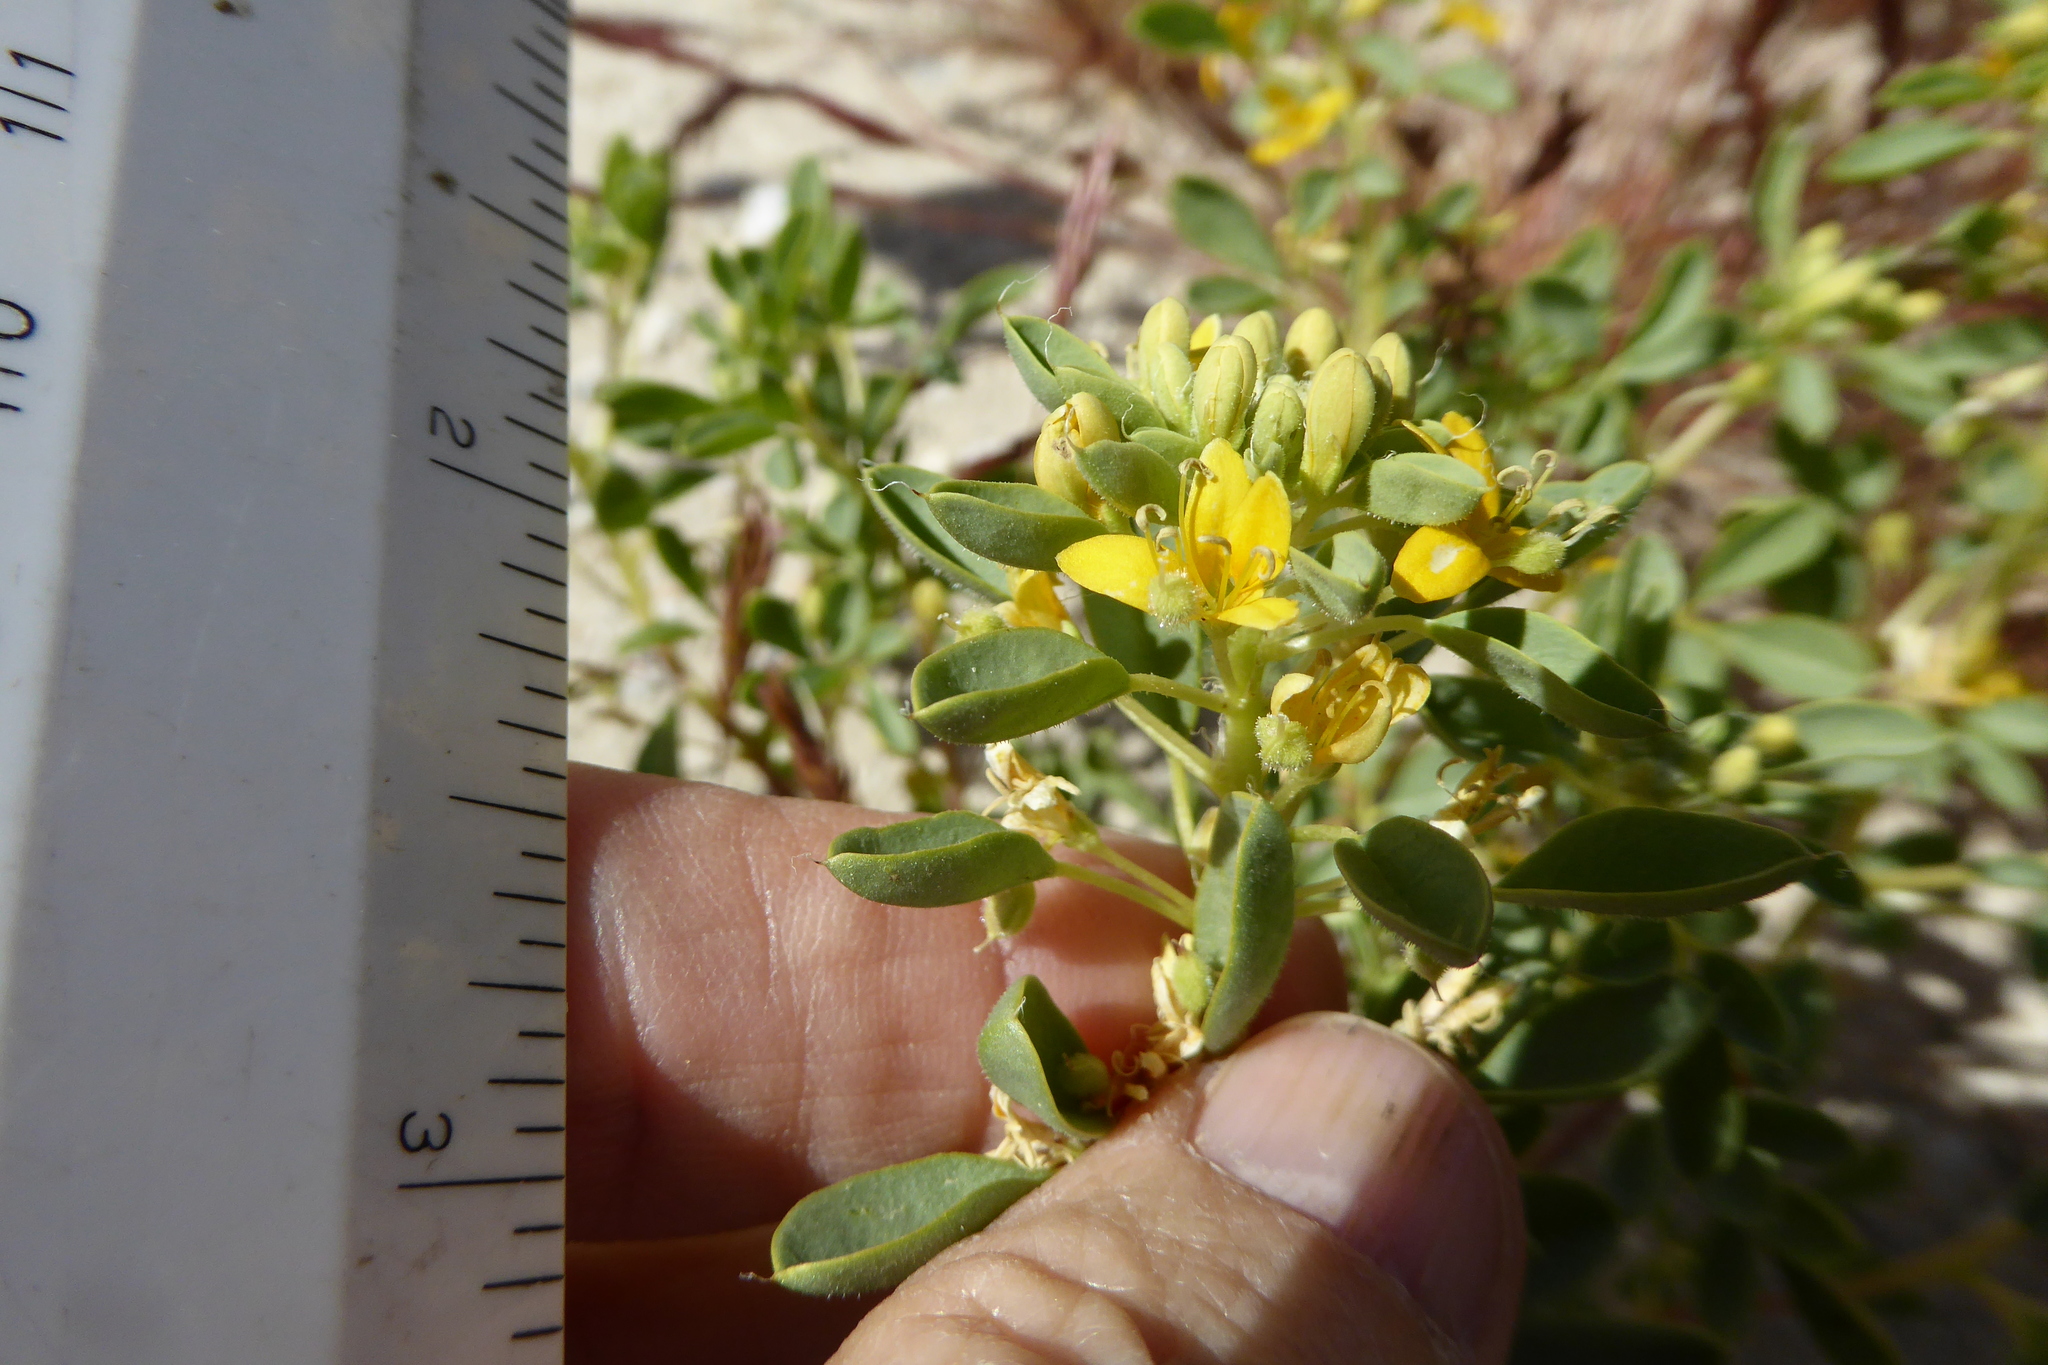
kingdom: Plantae
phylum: Tracheophyta
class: Magnoliopsida
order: Brassicales
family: Cleomaceae
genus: Cleomella
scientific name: Cleomella obtusifolia
